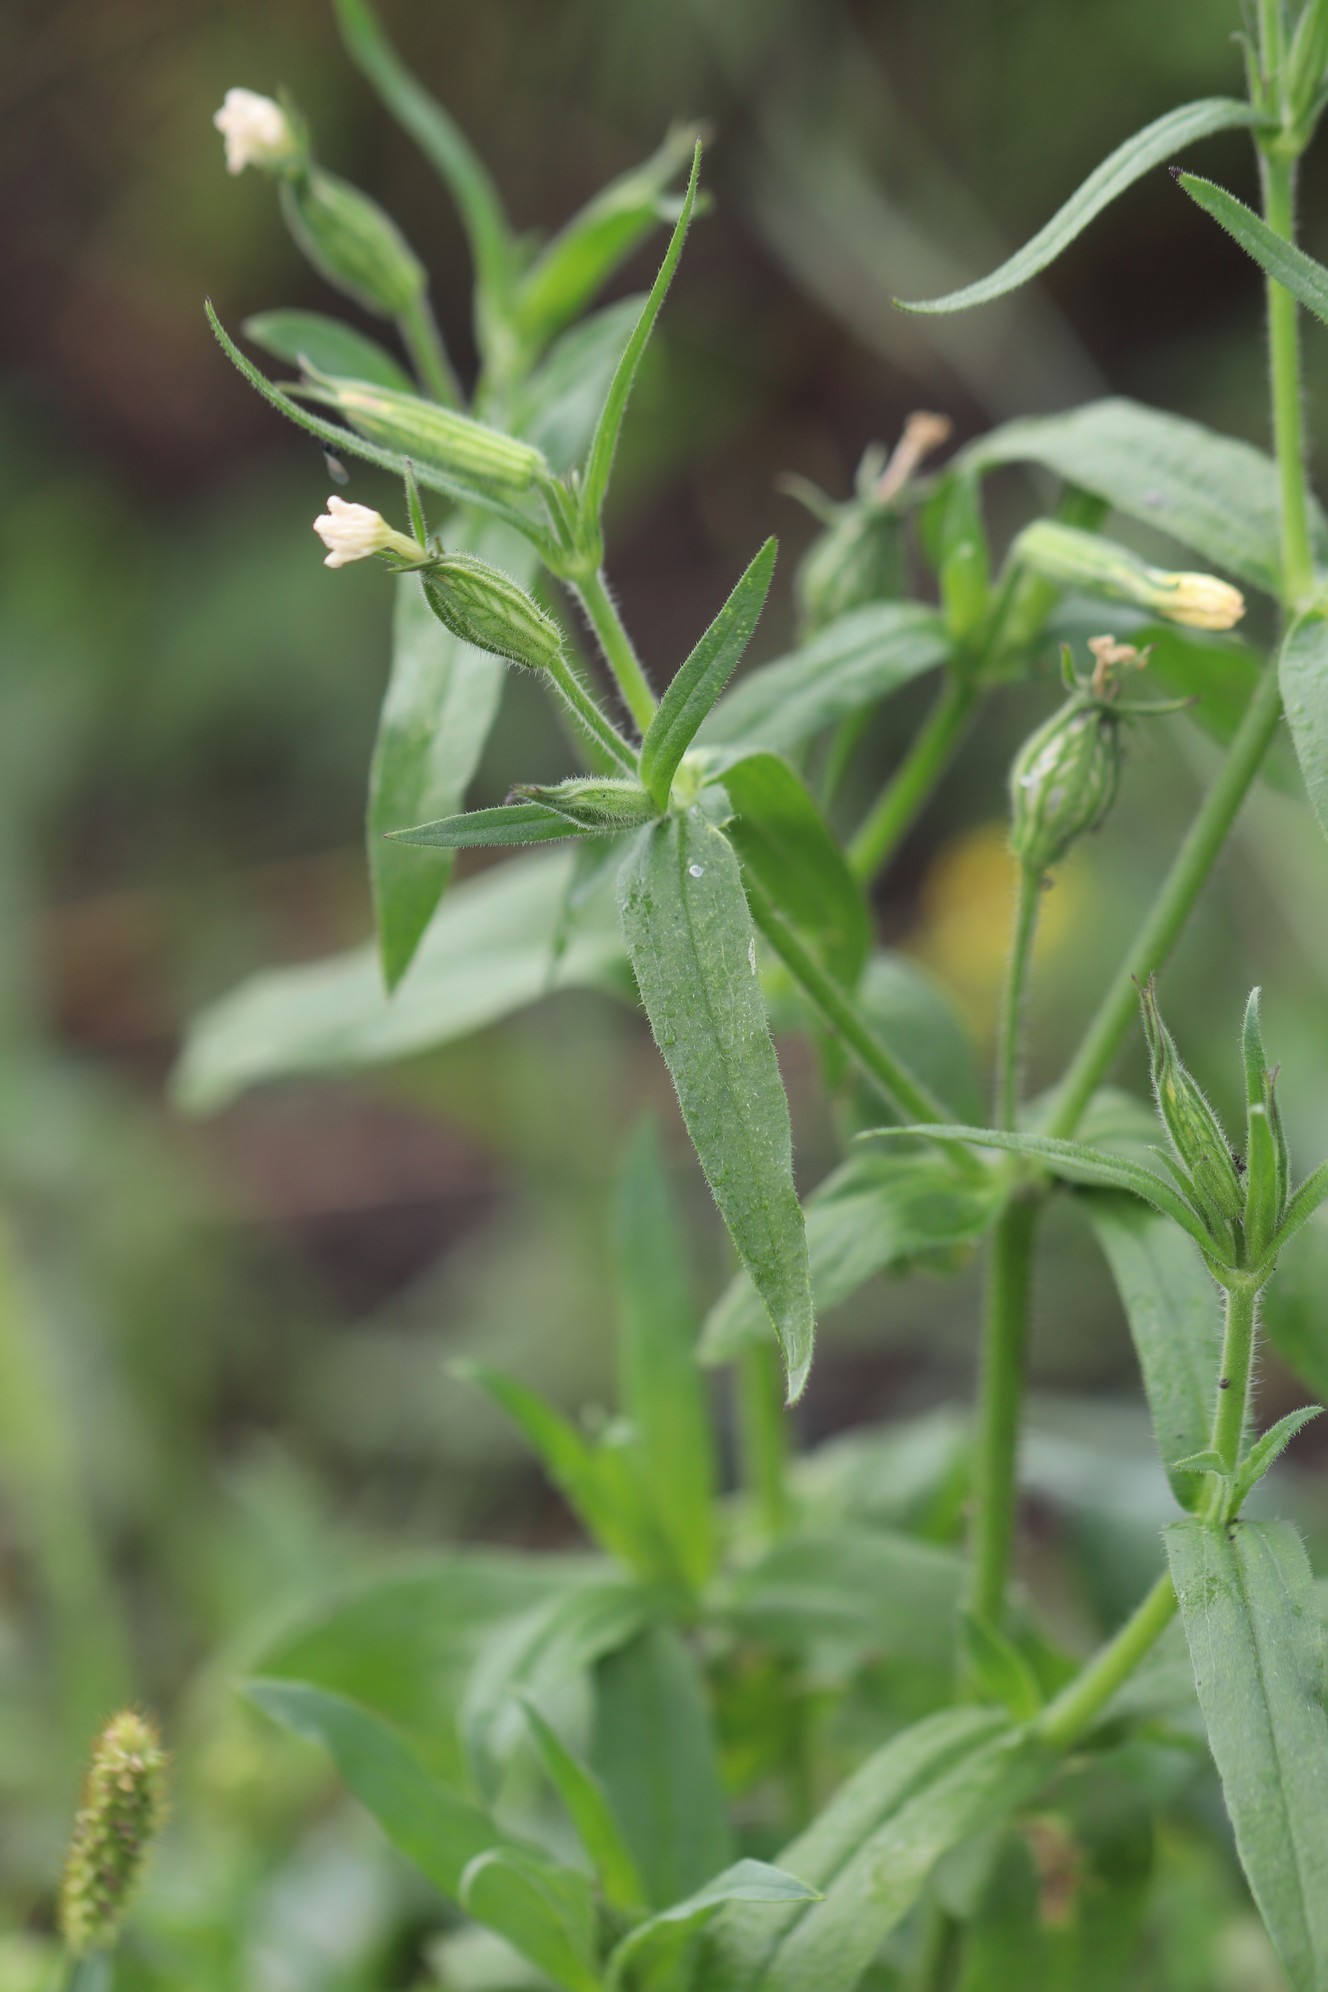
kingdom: Plantae
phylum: Tracheophyta
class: Magnoliopsida
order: Caryophyllales
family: Caryophyllaceae
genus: Silene
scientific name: Silene noctiflora
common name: Night-flowering catchfly
